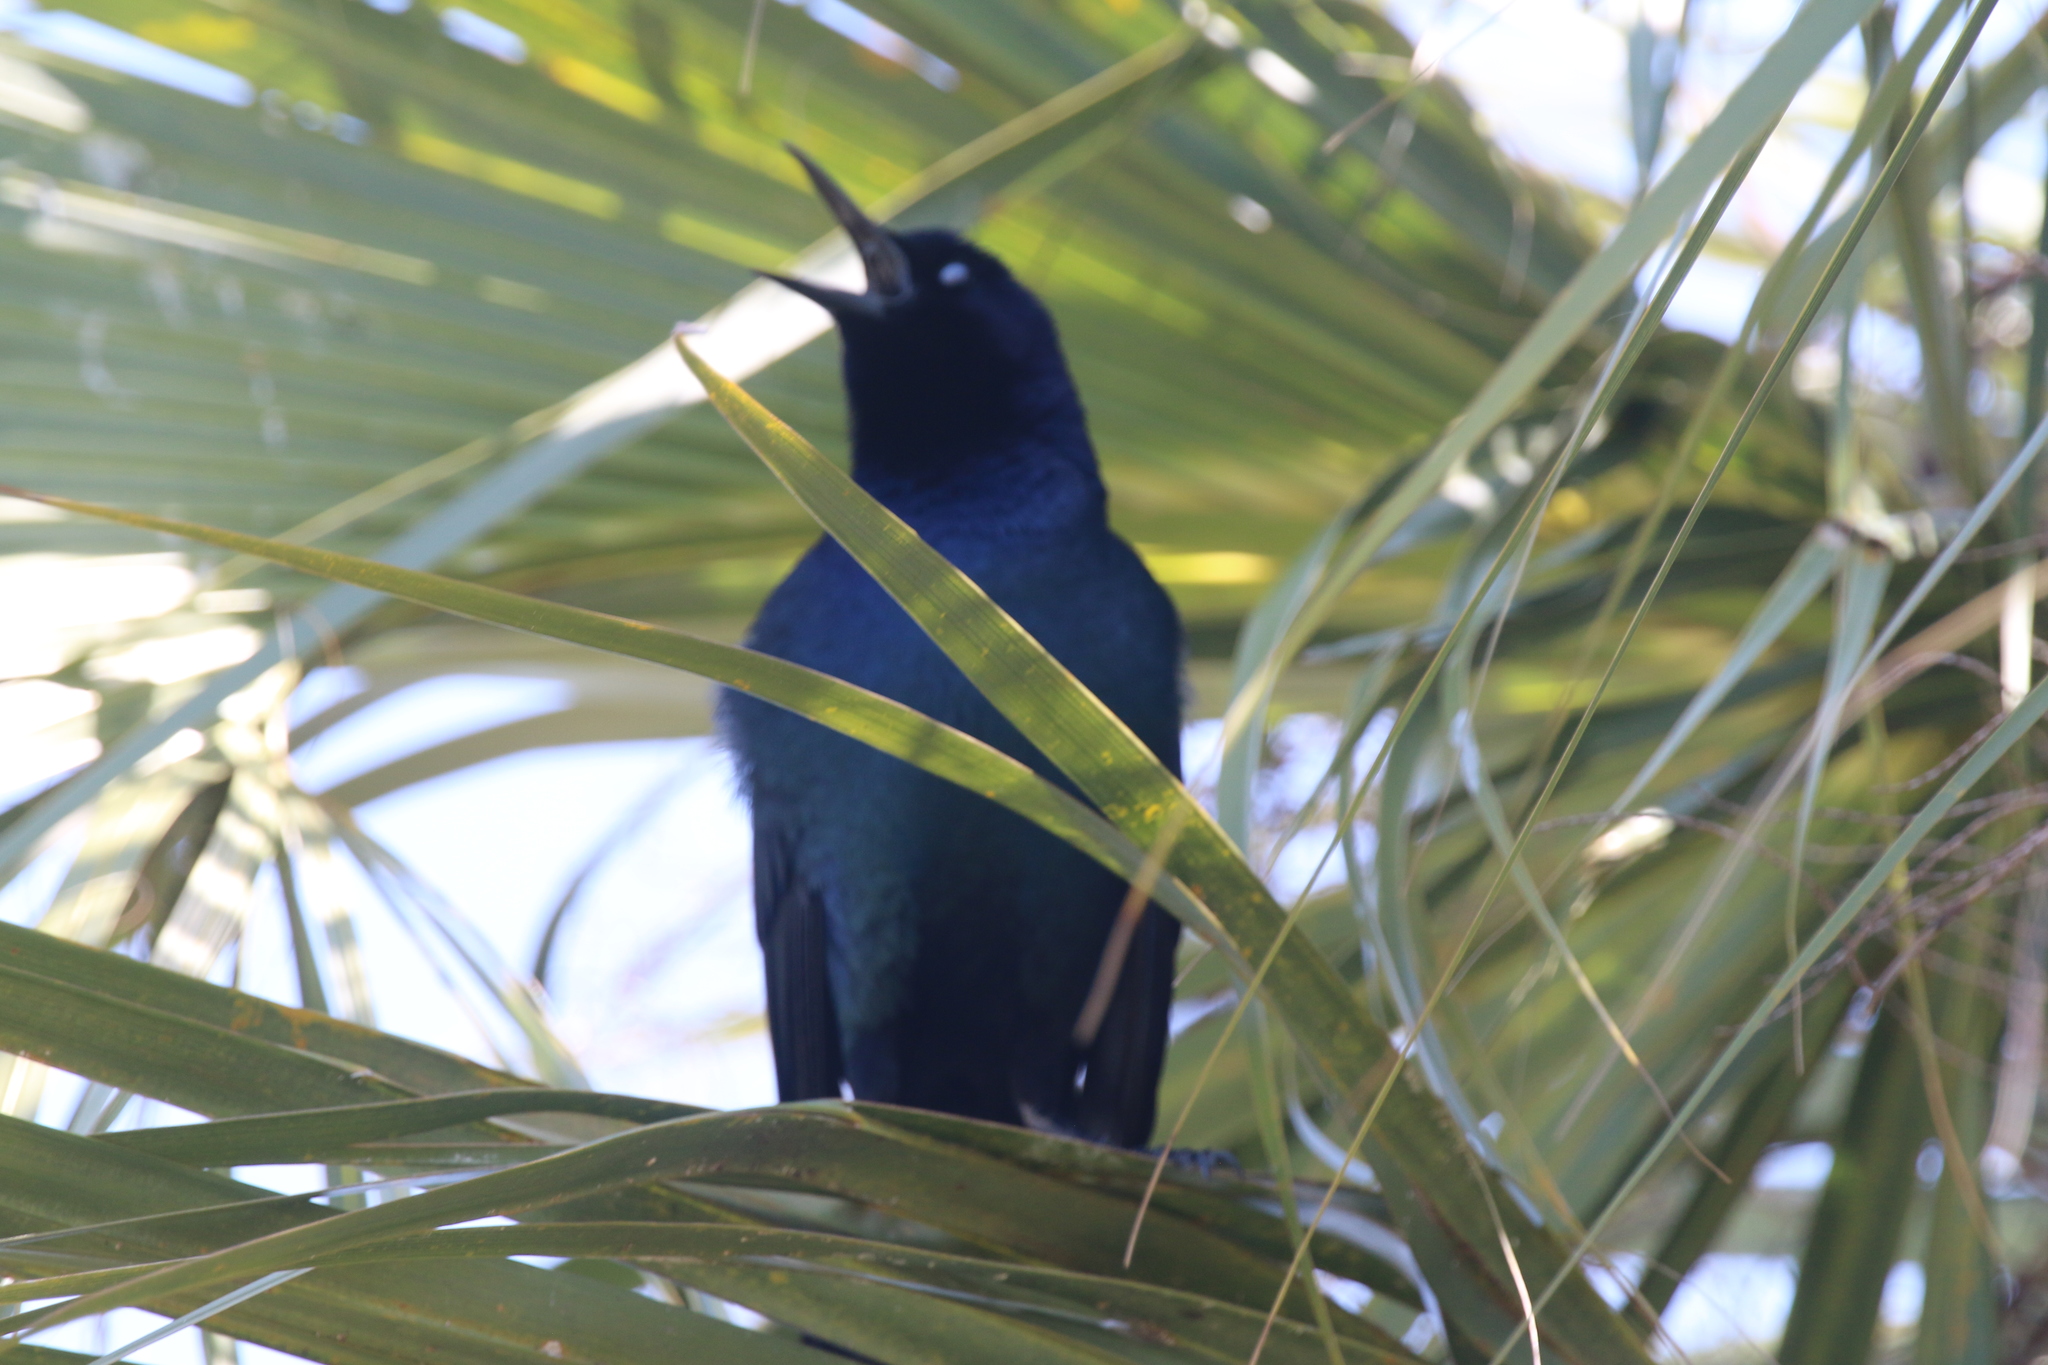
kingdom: Animalia
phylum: Chordata
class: Aves
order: Passeriformes
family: Icteridae
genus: Quiscalus
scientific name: Quiscalus major
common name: Boat-tailed grackle
